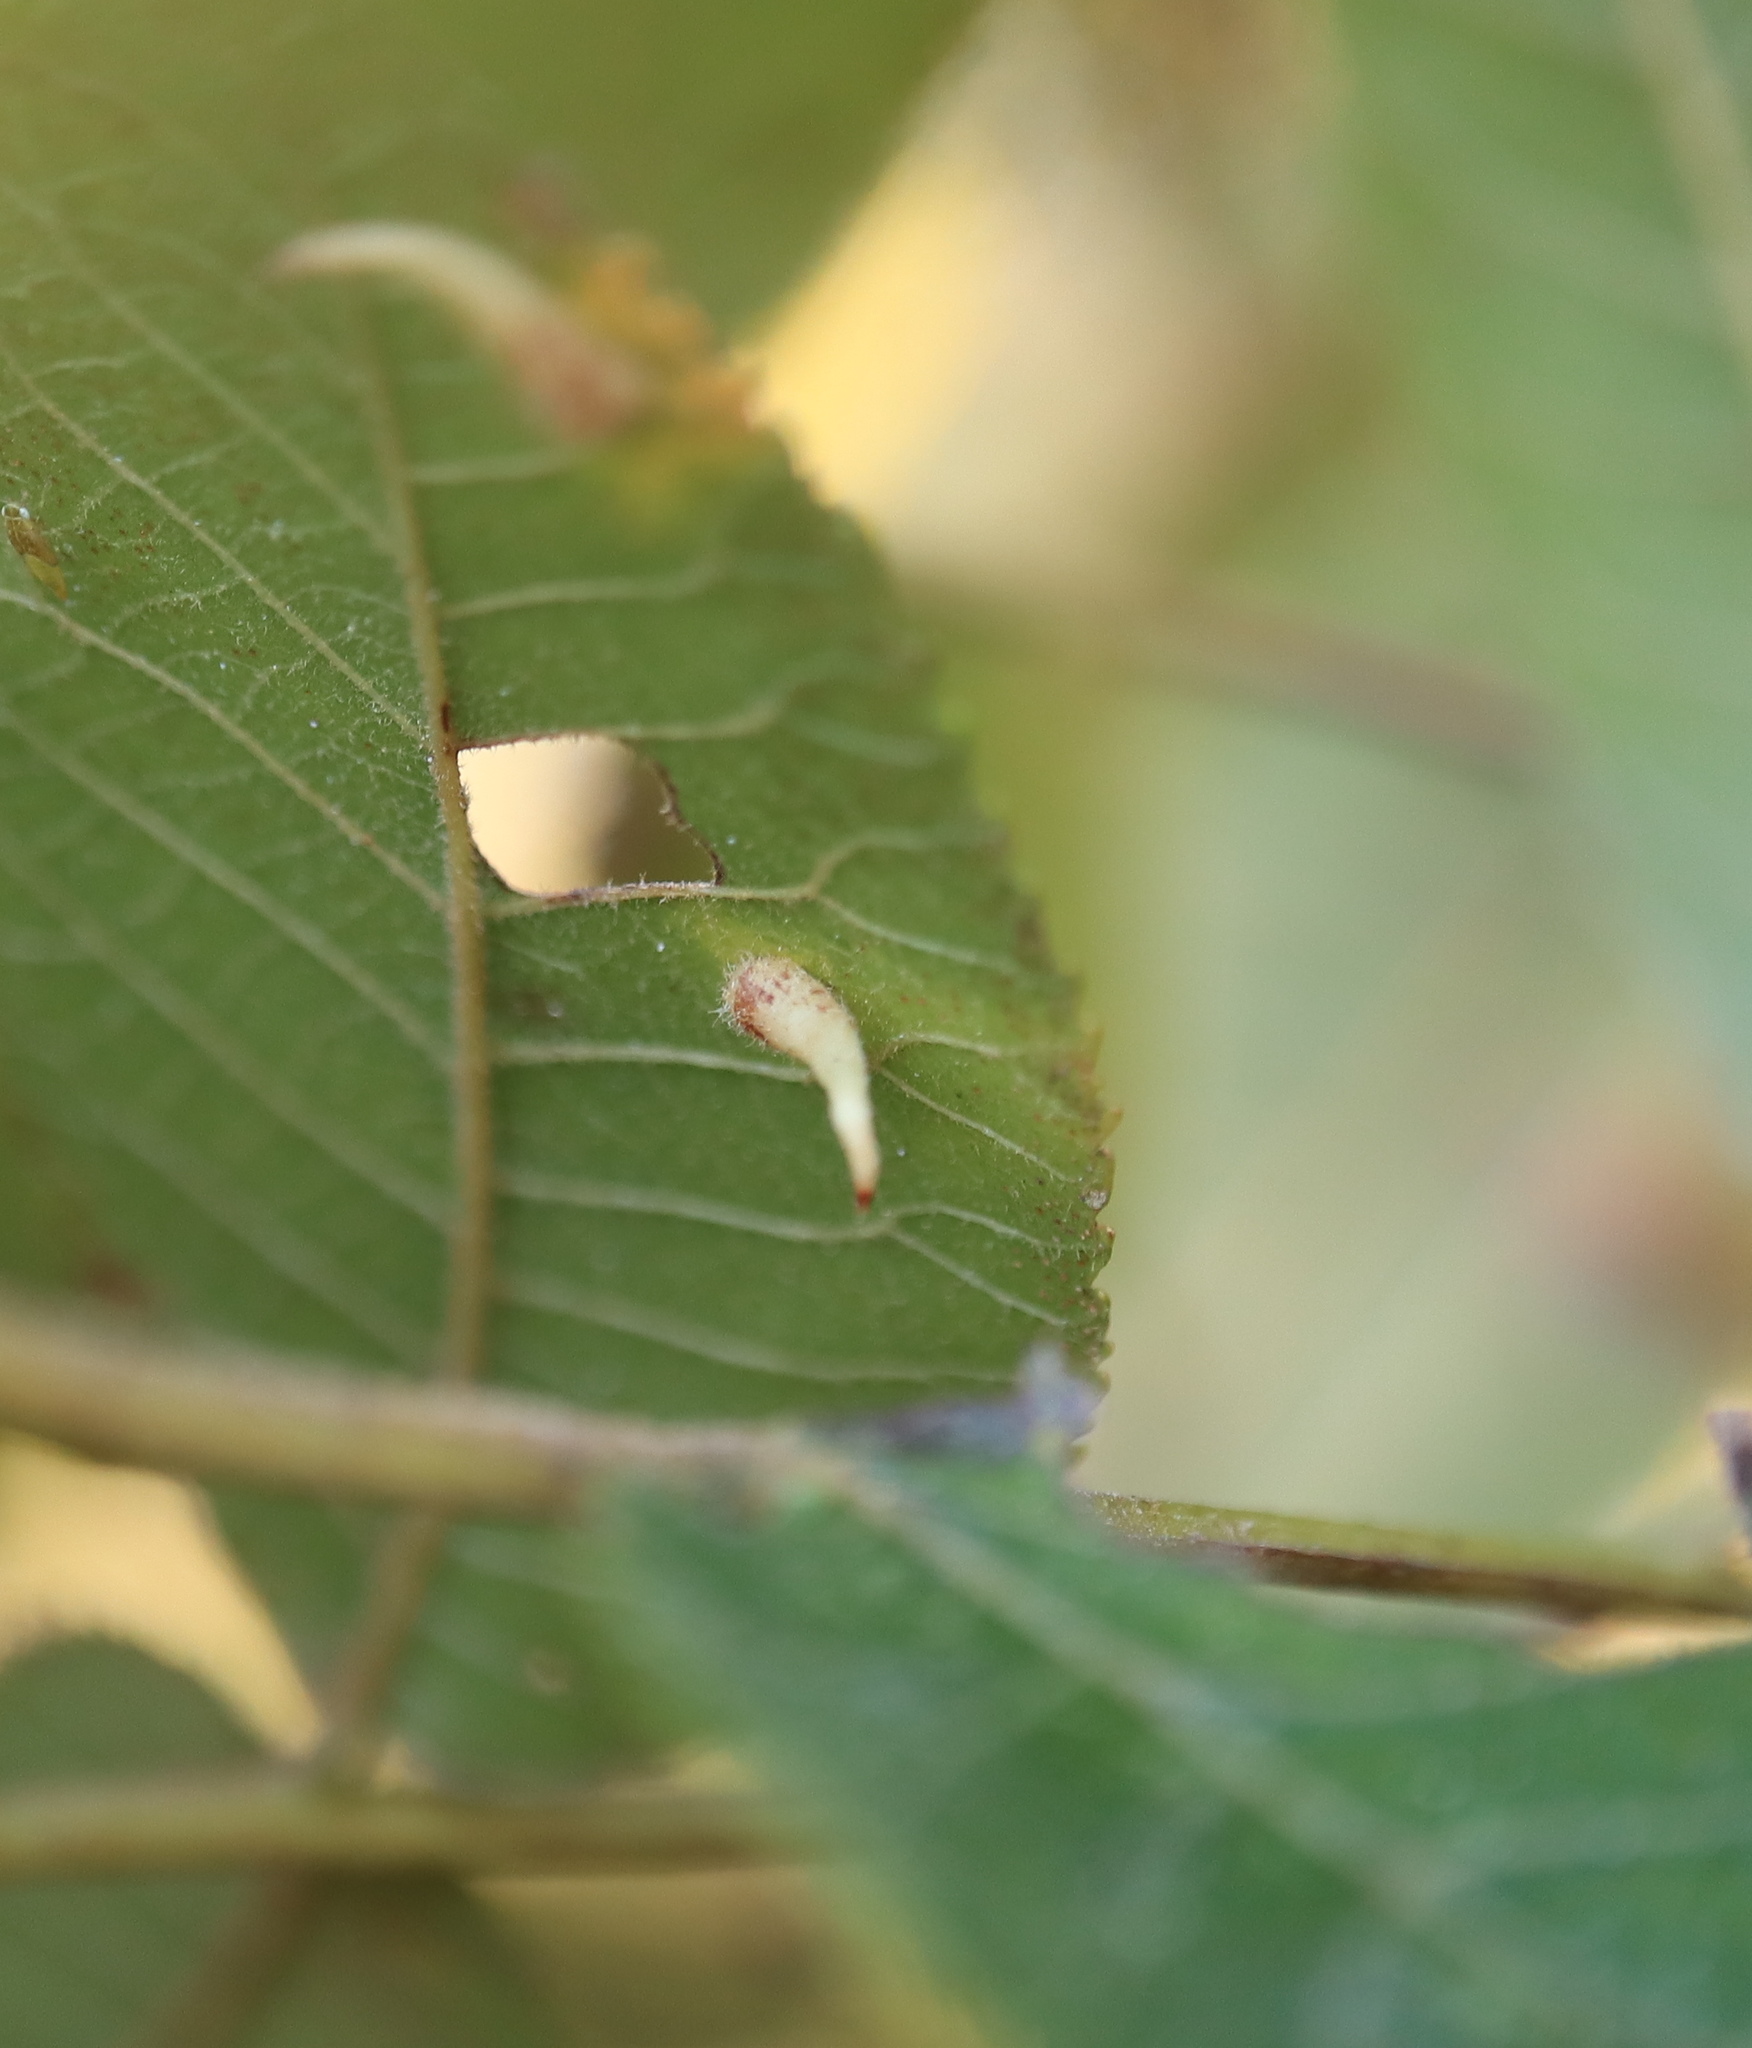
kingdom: Animalia
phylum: Arthropoda
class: Insecta
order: Diptera
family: Cecidomyiidae
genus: Caryomyia
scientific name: Caryomyia spinulosa
